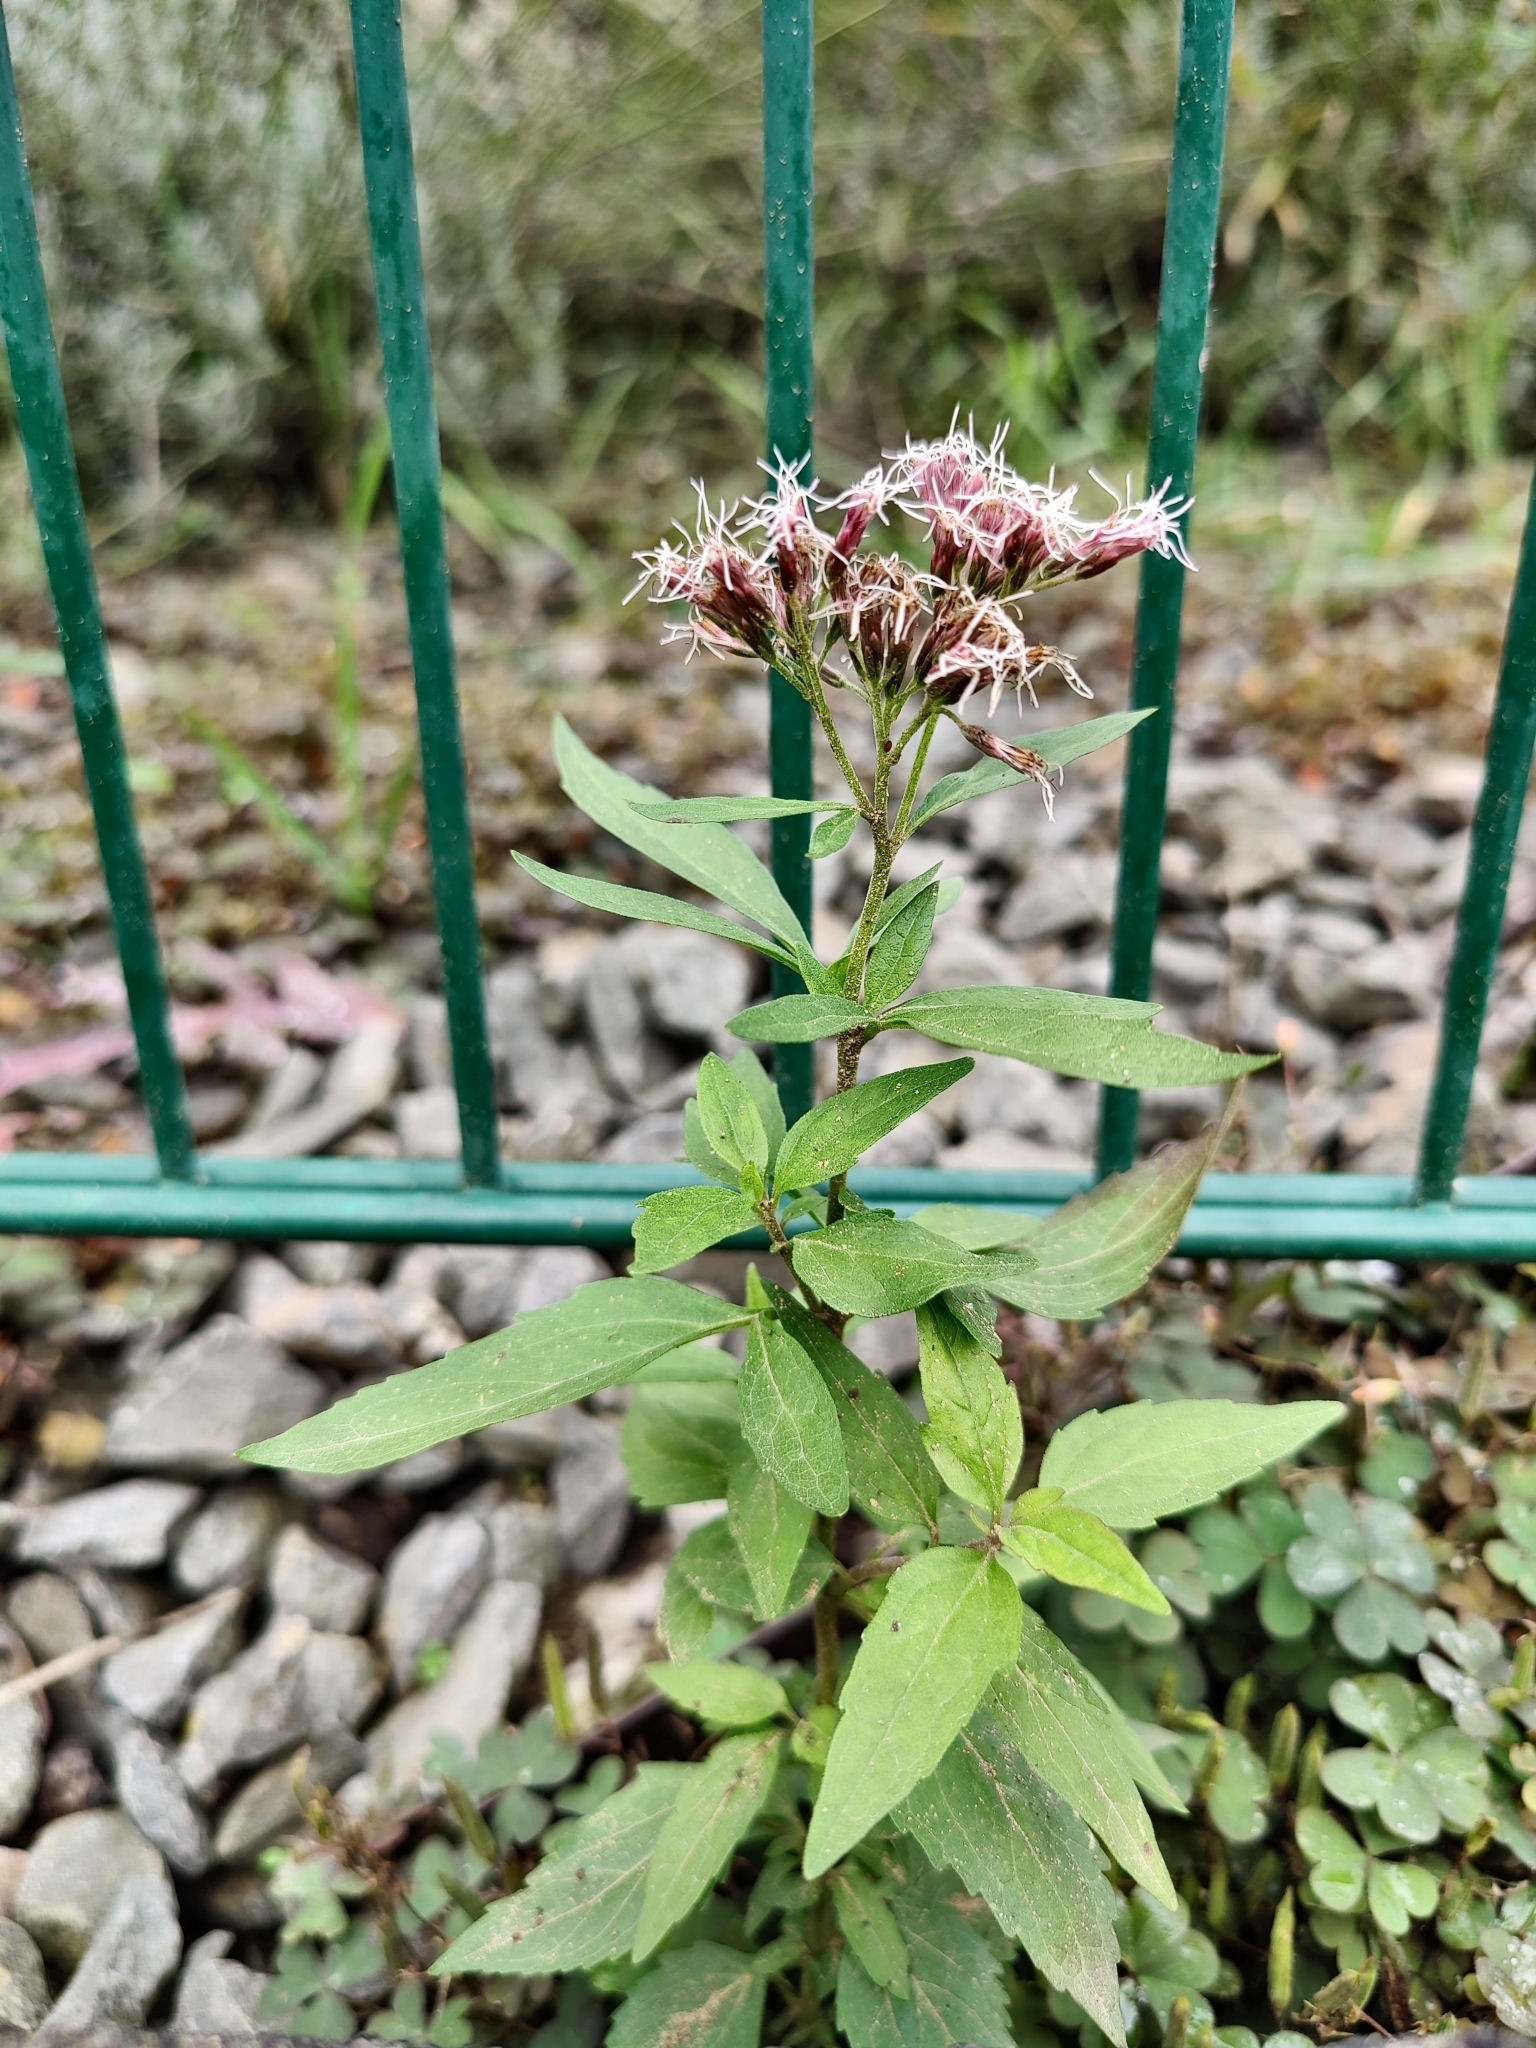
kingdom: Plantae
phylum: Tracheophyta
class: Magnoliopsida
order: Asterales
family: Asteraceae
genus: Eupatorium
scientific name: Eupatorium cannabinum
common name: Hemp-agrimony
